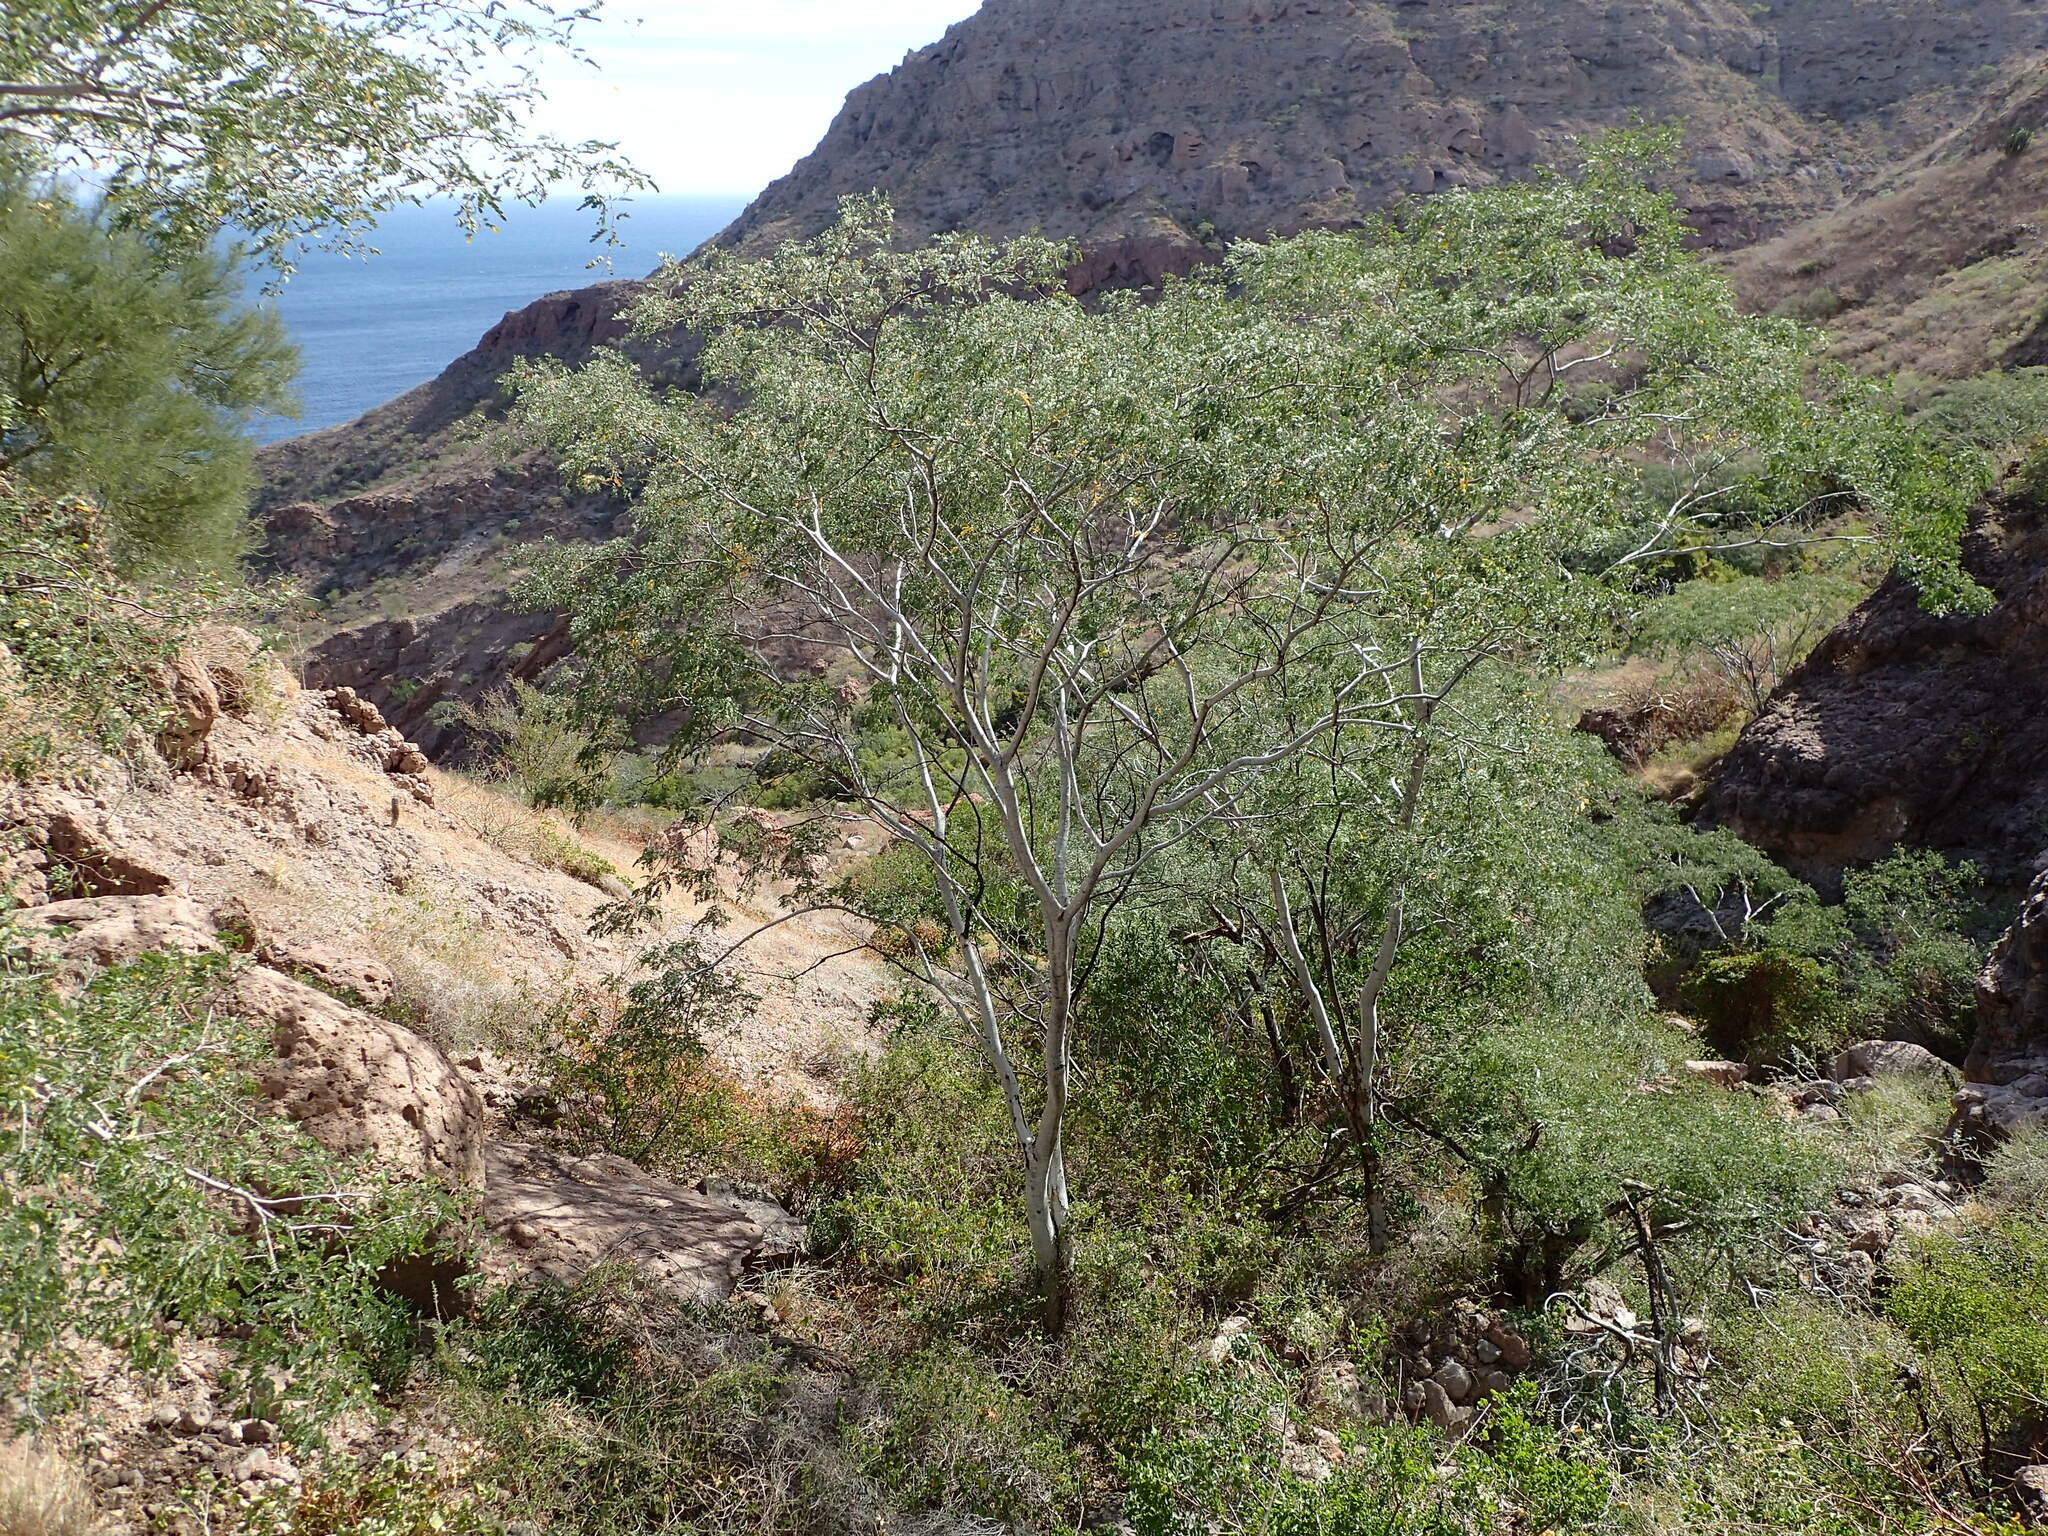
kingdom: Plantae
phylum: Tracheophyta
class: Magnoliopsida
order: Fabales
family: Fabaceae
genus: Lysiloma
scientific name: Lysiloma candidum
